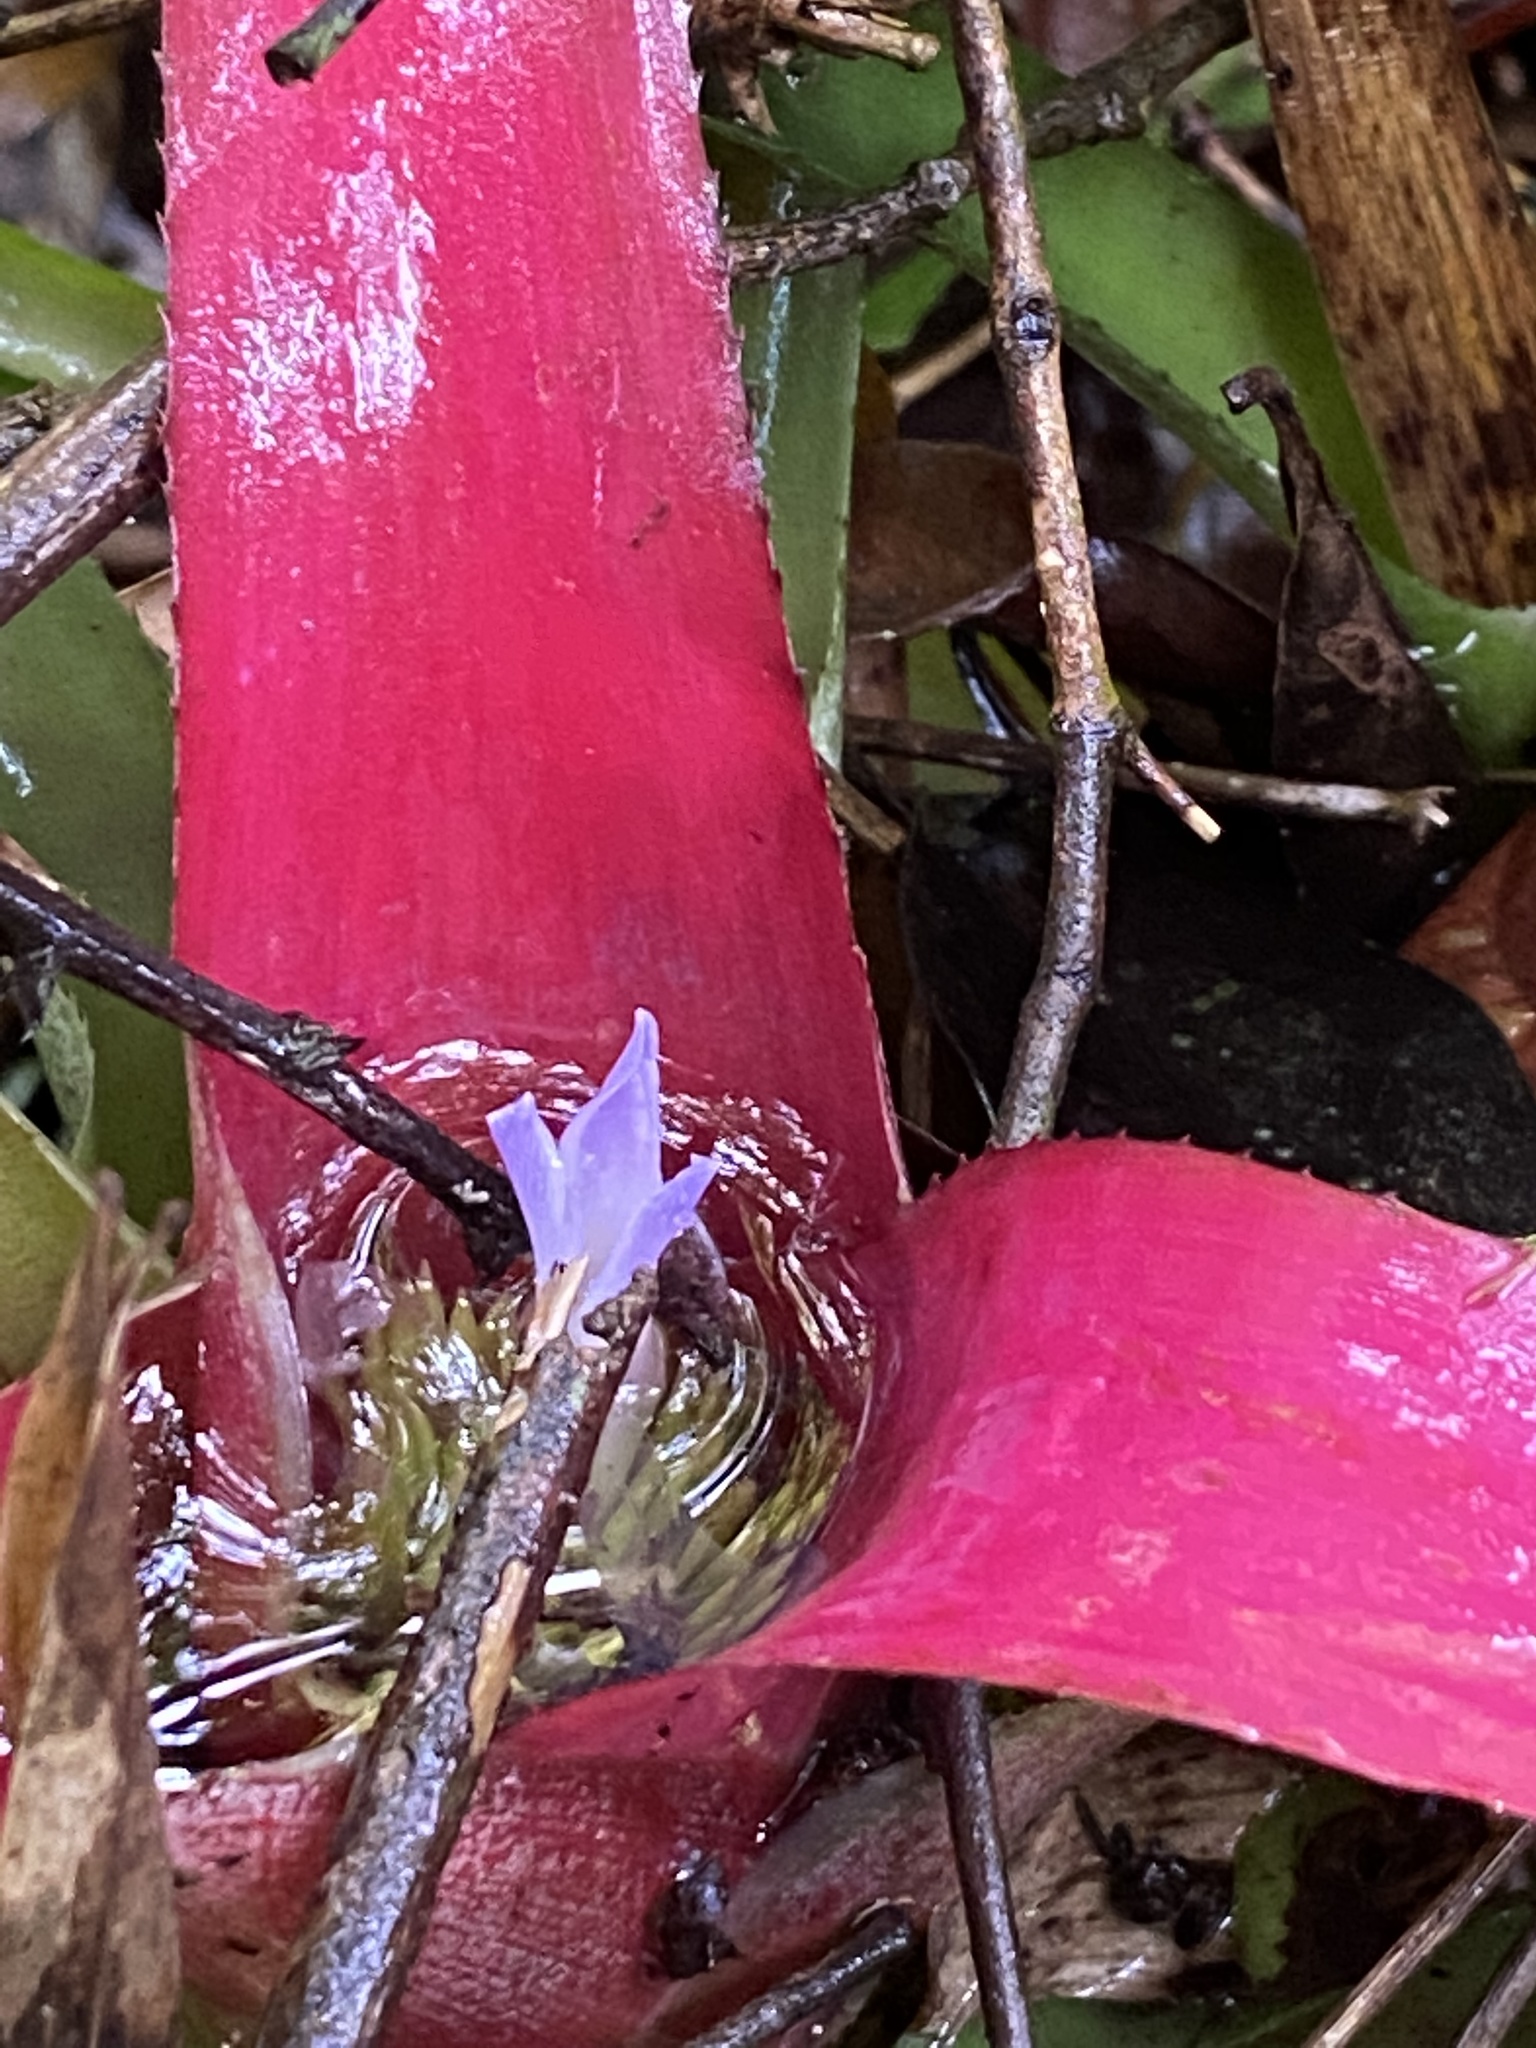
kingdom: Plantae
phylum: Tracheophyta
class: Liliopsida
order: Poales
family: Bromeliaceae
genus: Neoregelia
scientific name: Neoregelia carolinae
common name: Blushing bromeliad
